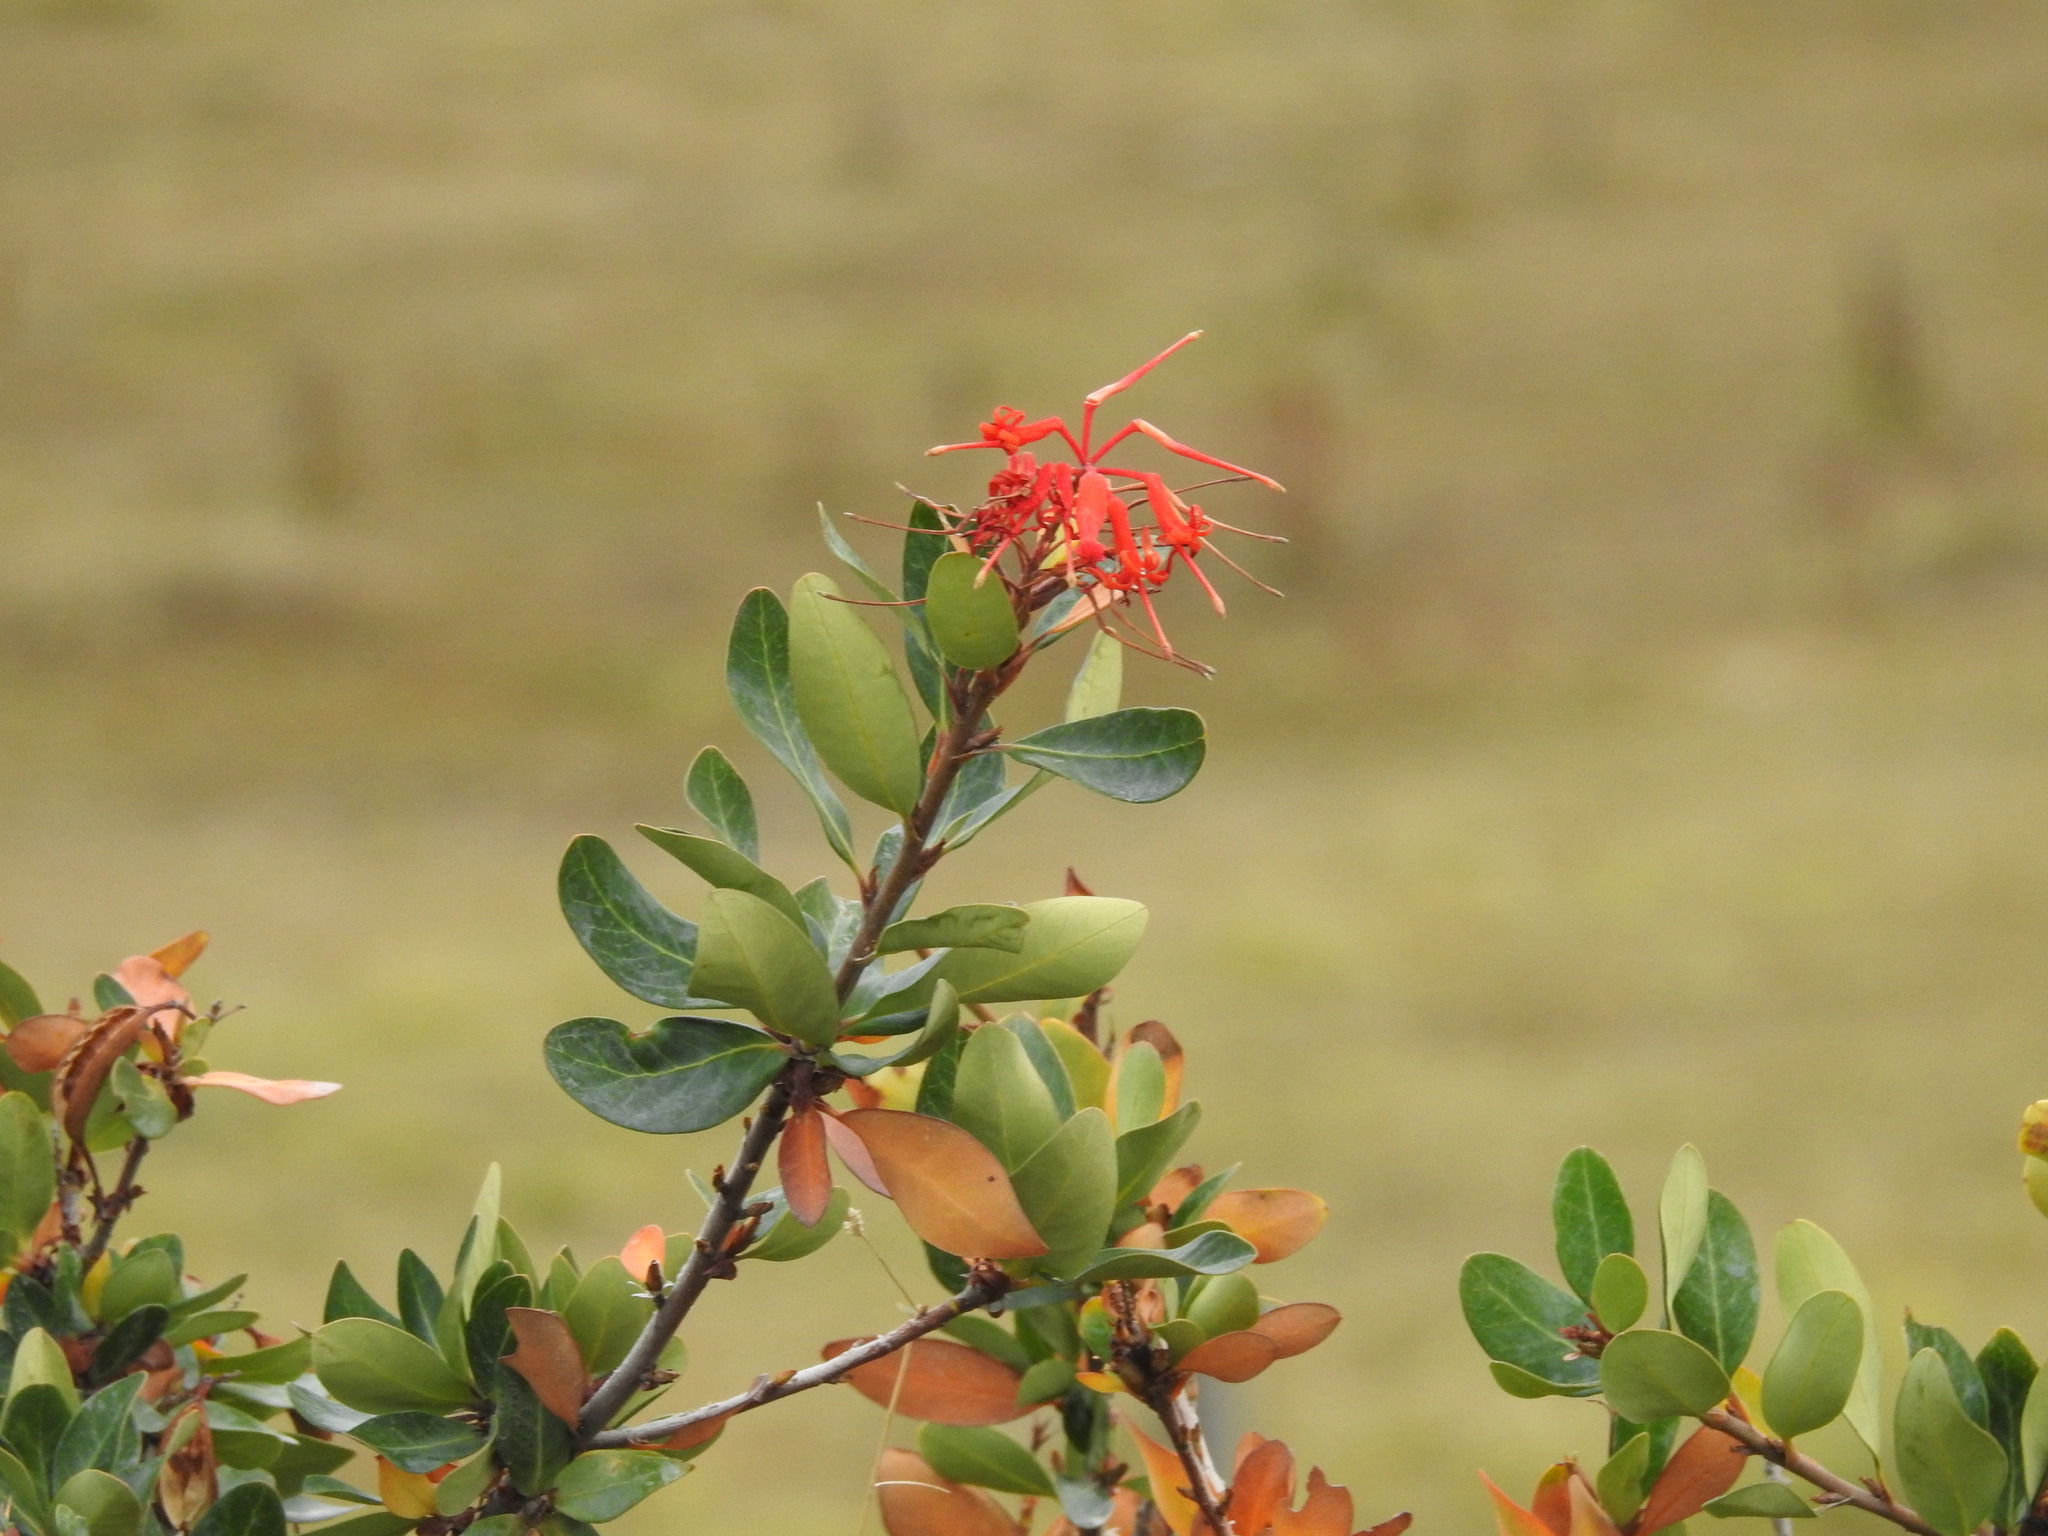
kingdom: Plantae
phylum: Tracheophyta
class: Magnoliopsida
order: Proteales
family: Proteaceae
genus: Embothrium
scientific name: Embothrium coccineum
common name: Chilean firebush
